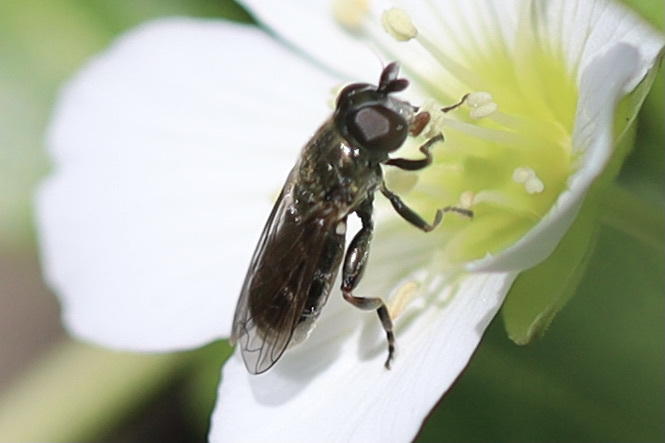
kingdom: Animalia
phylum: Arthropoda
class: Insecta
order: Diptera
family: Syrphidae
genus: Eumerus
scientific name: Eumerus
